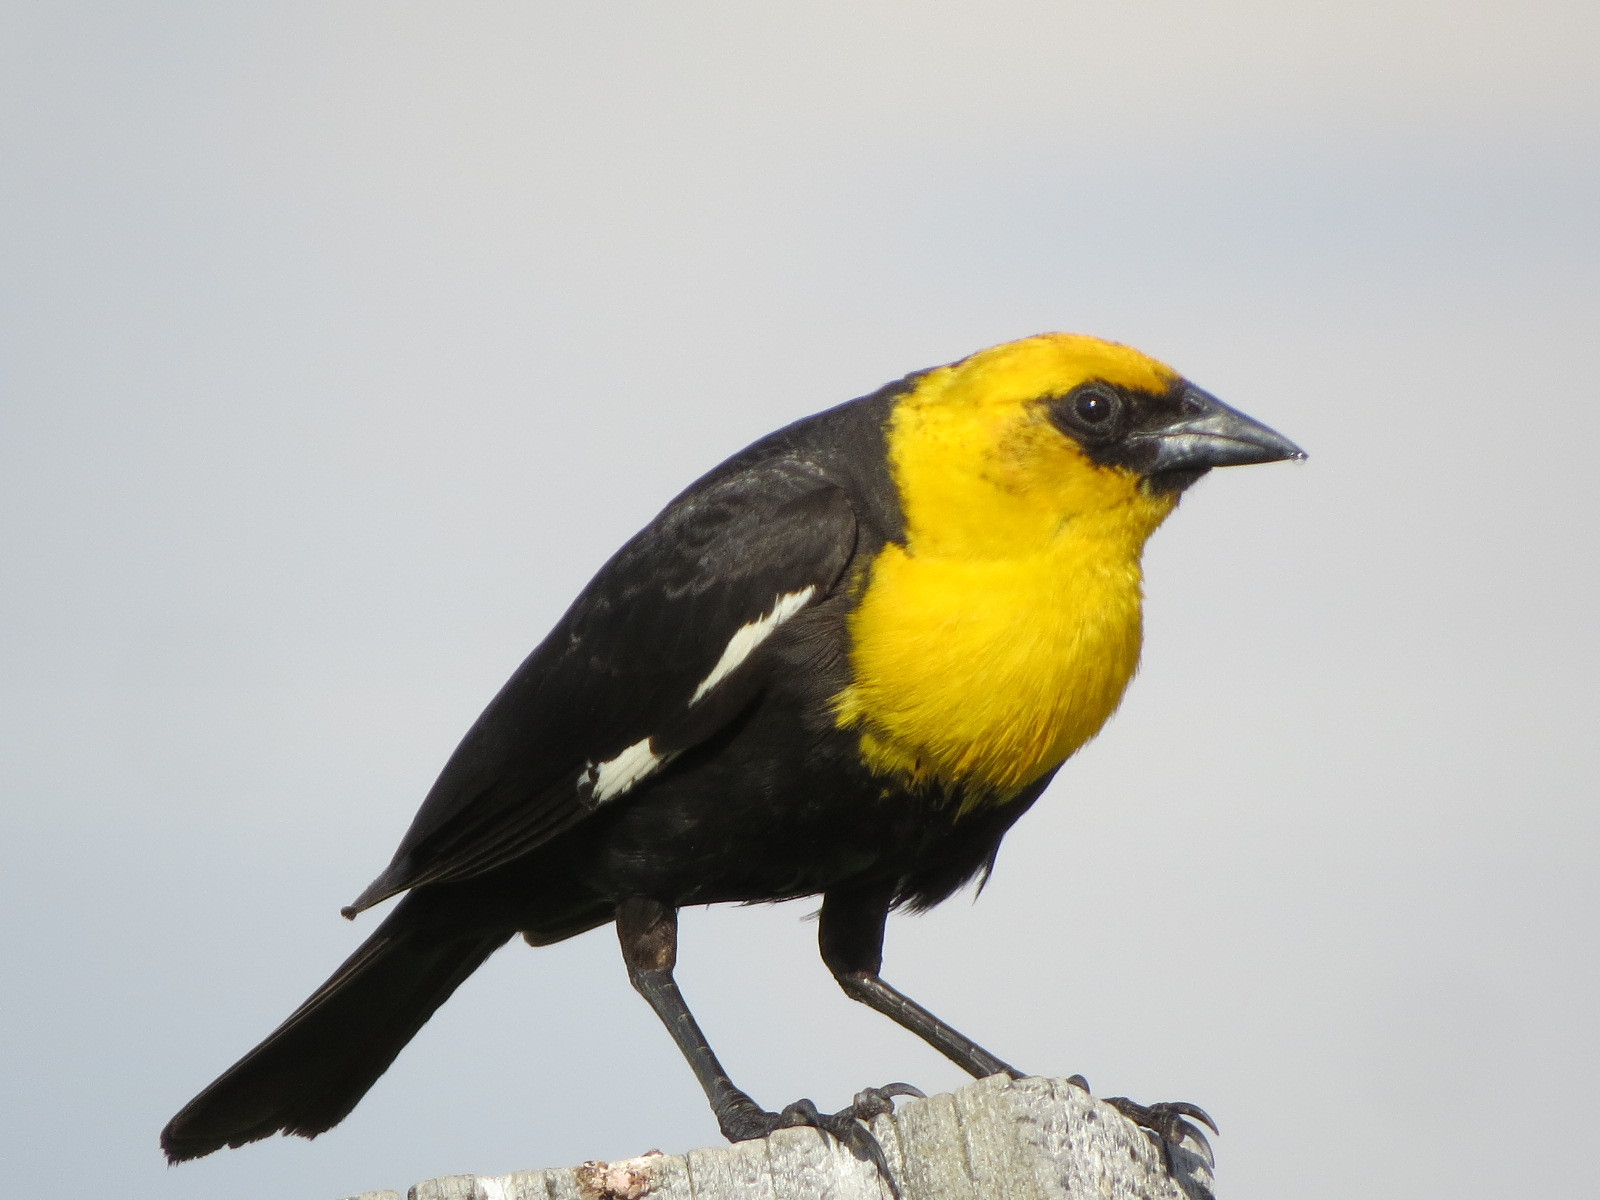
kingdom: Animalia
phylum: Chordata
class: Aves
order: Passeriformes
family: Icteridae
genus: Xanthocephalus
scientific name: Xanthocephalus xanthocephalus
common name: Yellow-headed blackbird
